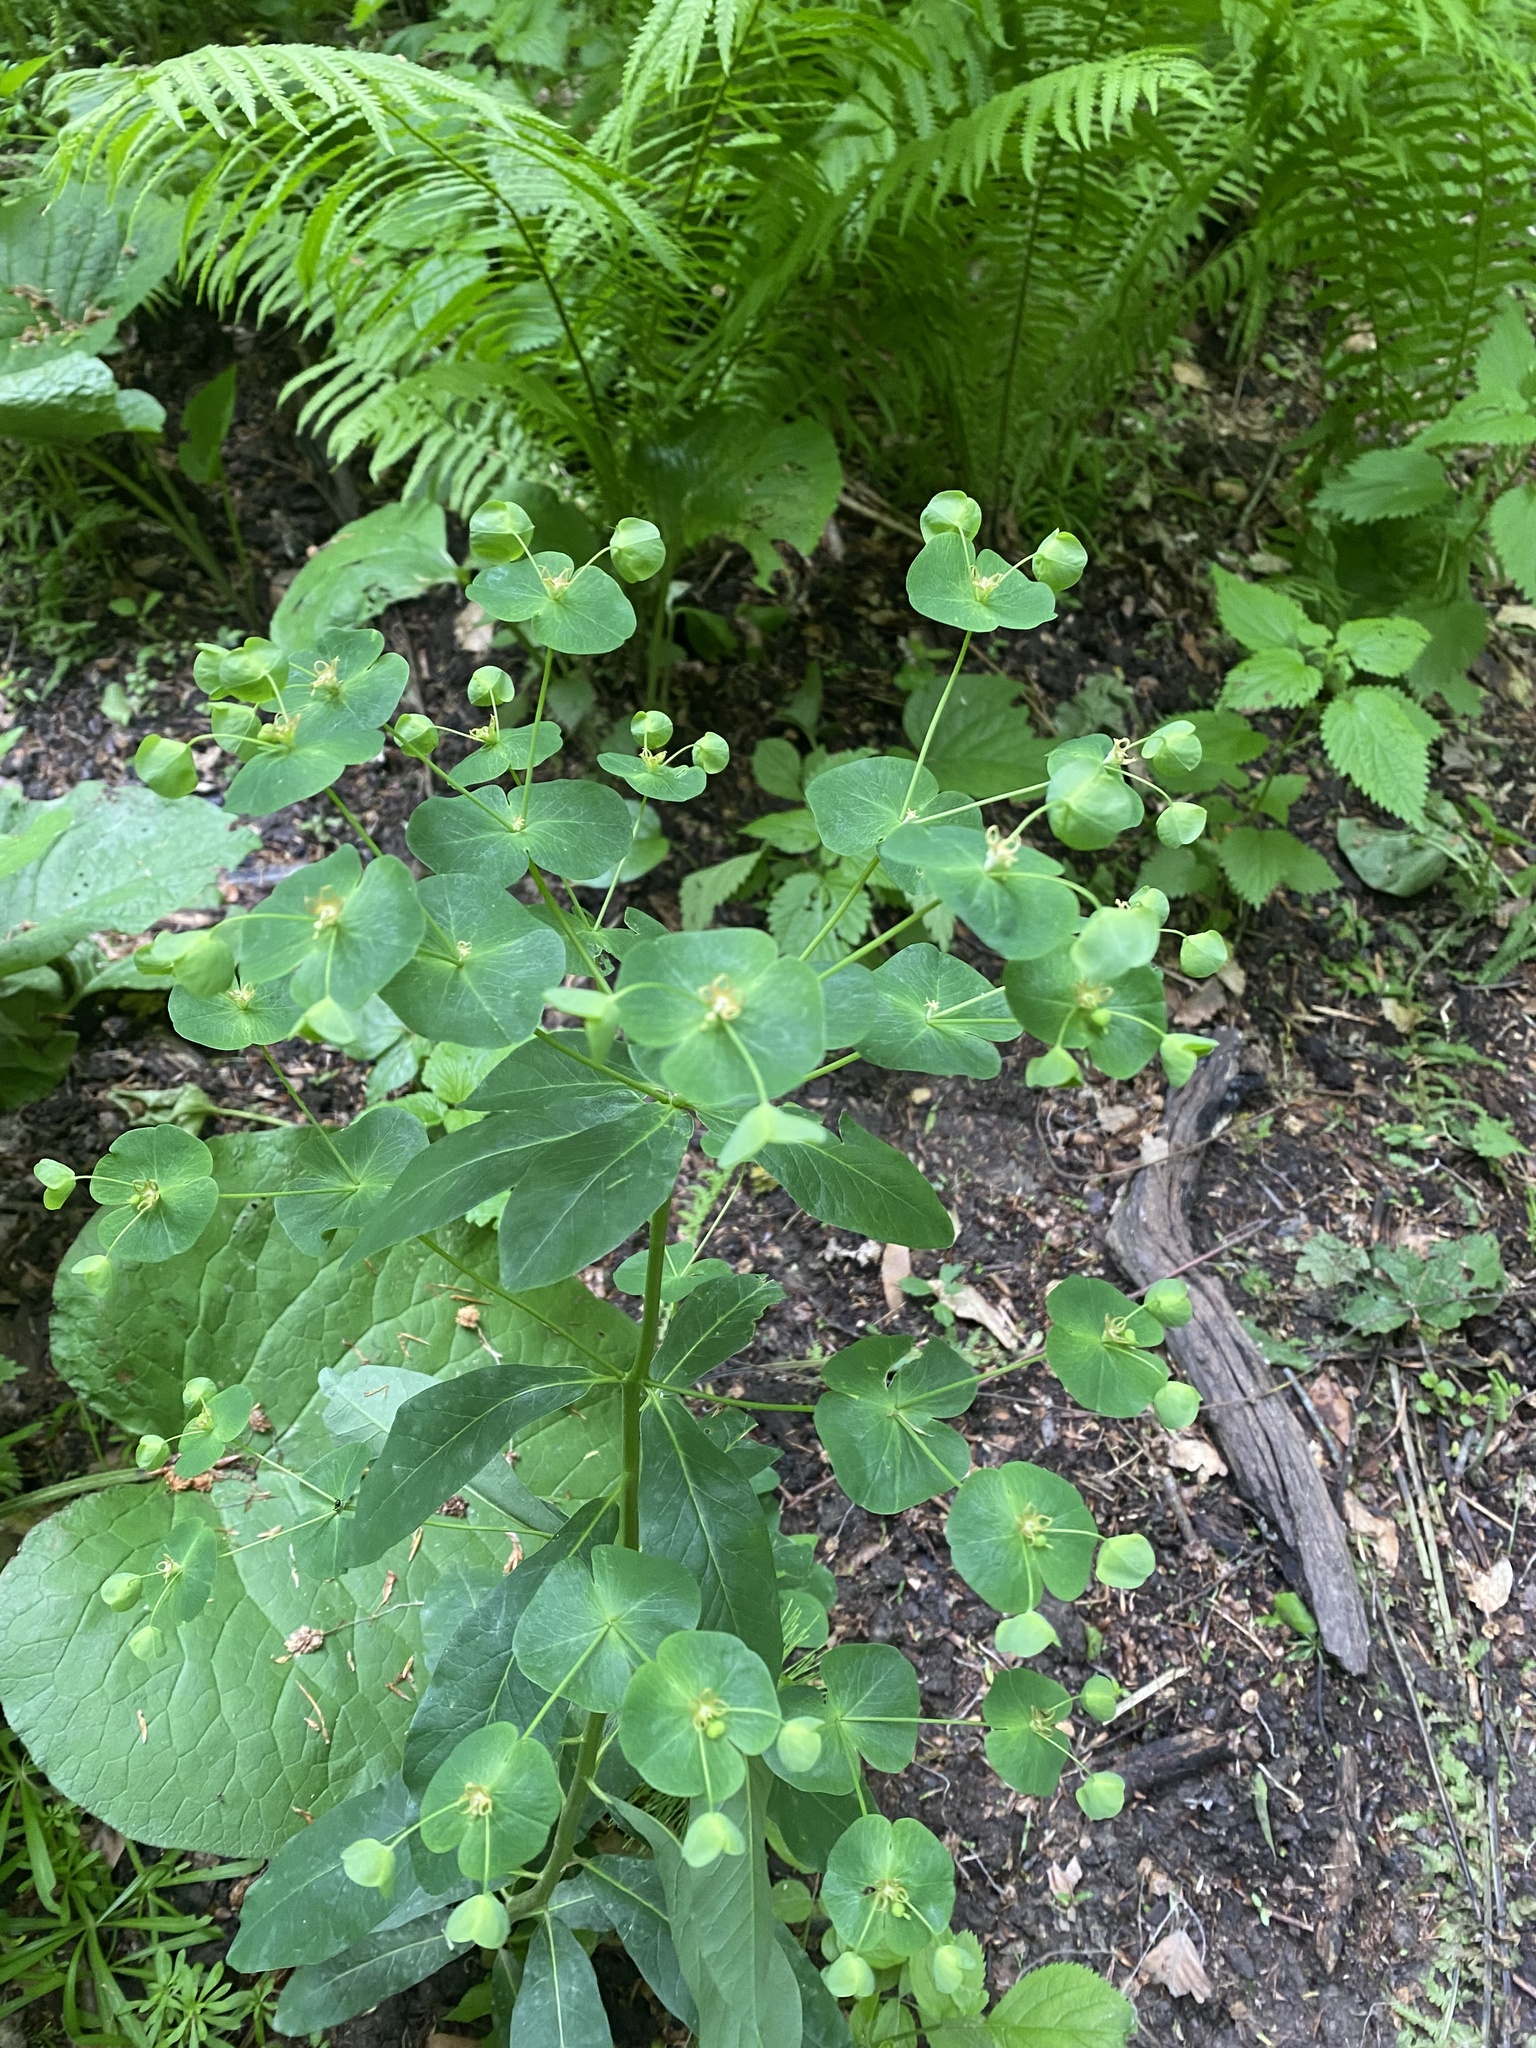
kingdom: Plantae
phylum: Tracheophyta
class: Magnoliopsida
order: Malpighiales
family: Euphorbiaceae
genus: Euphorbia
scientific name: Euphorbia squamosa
